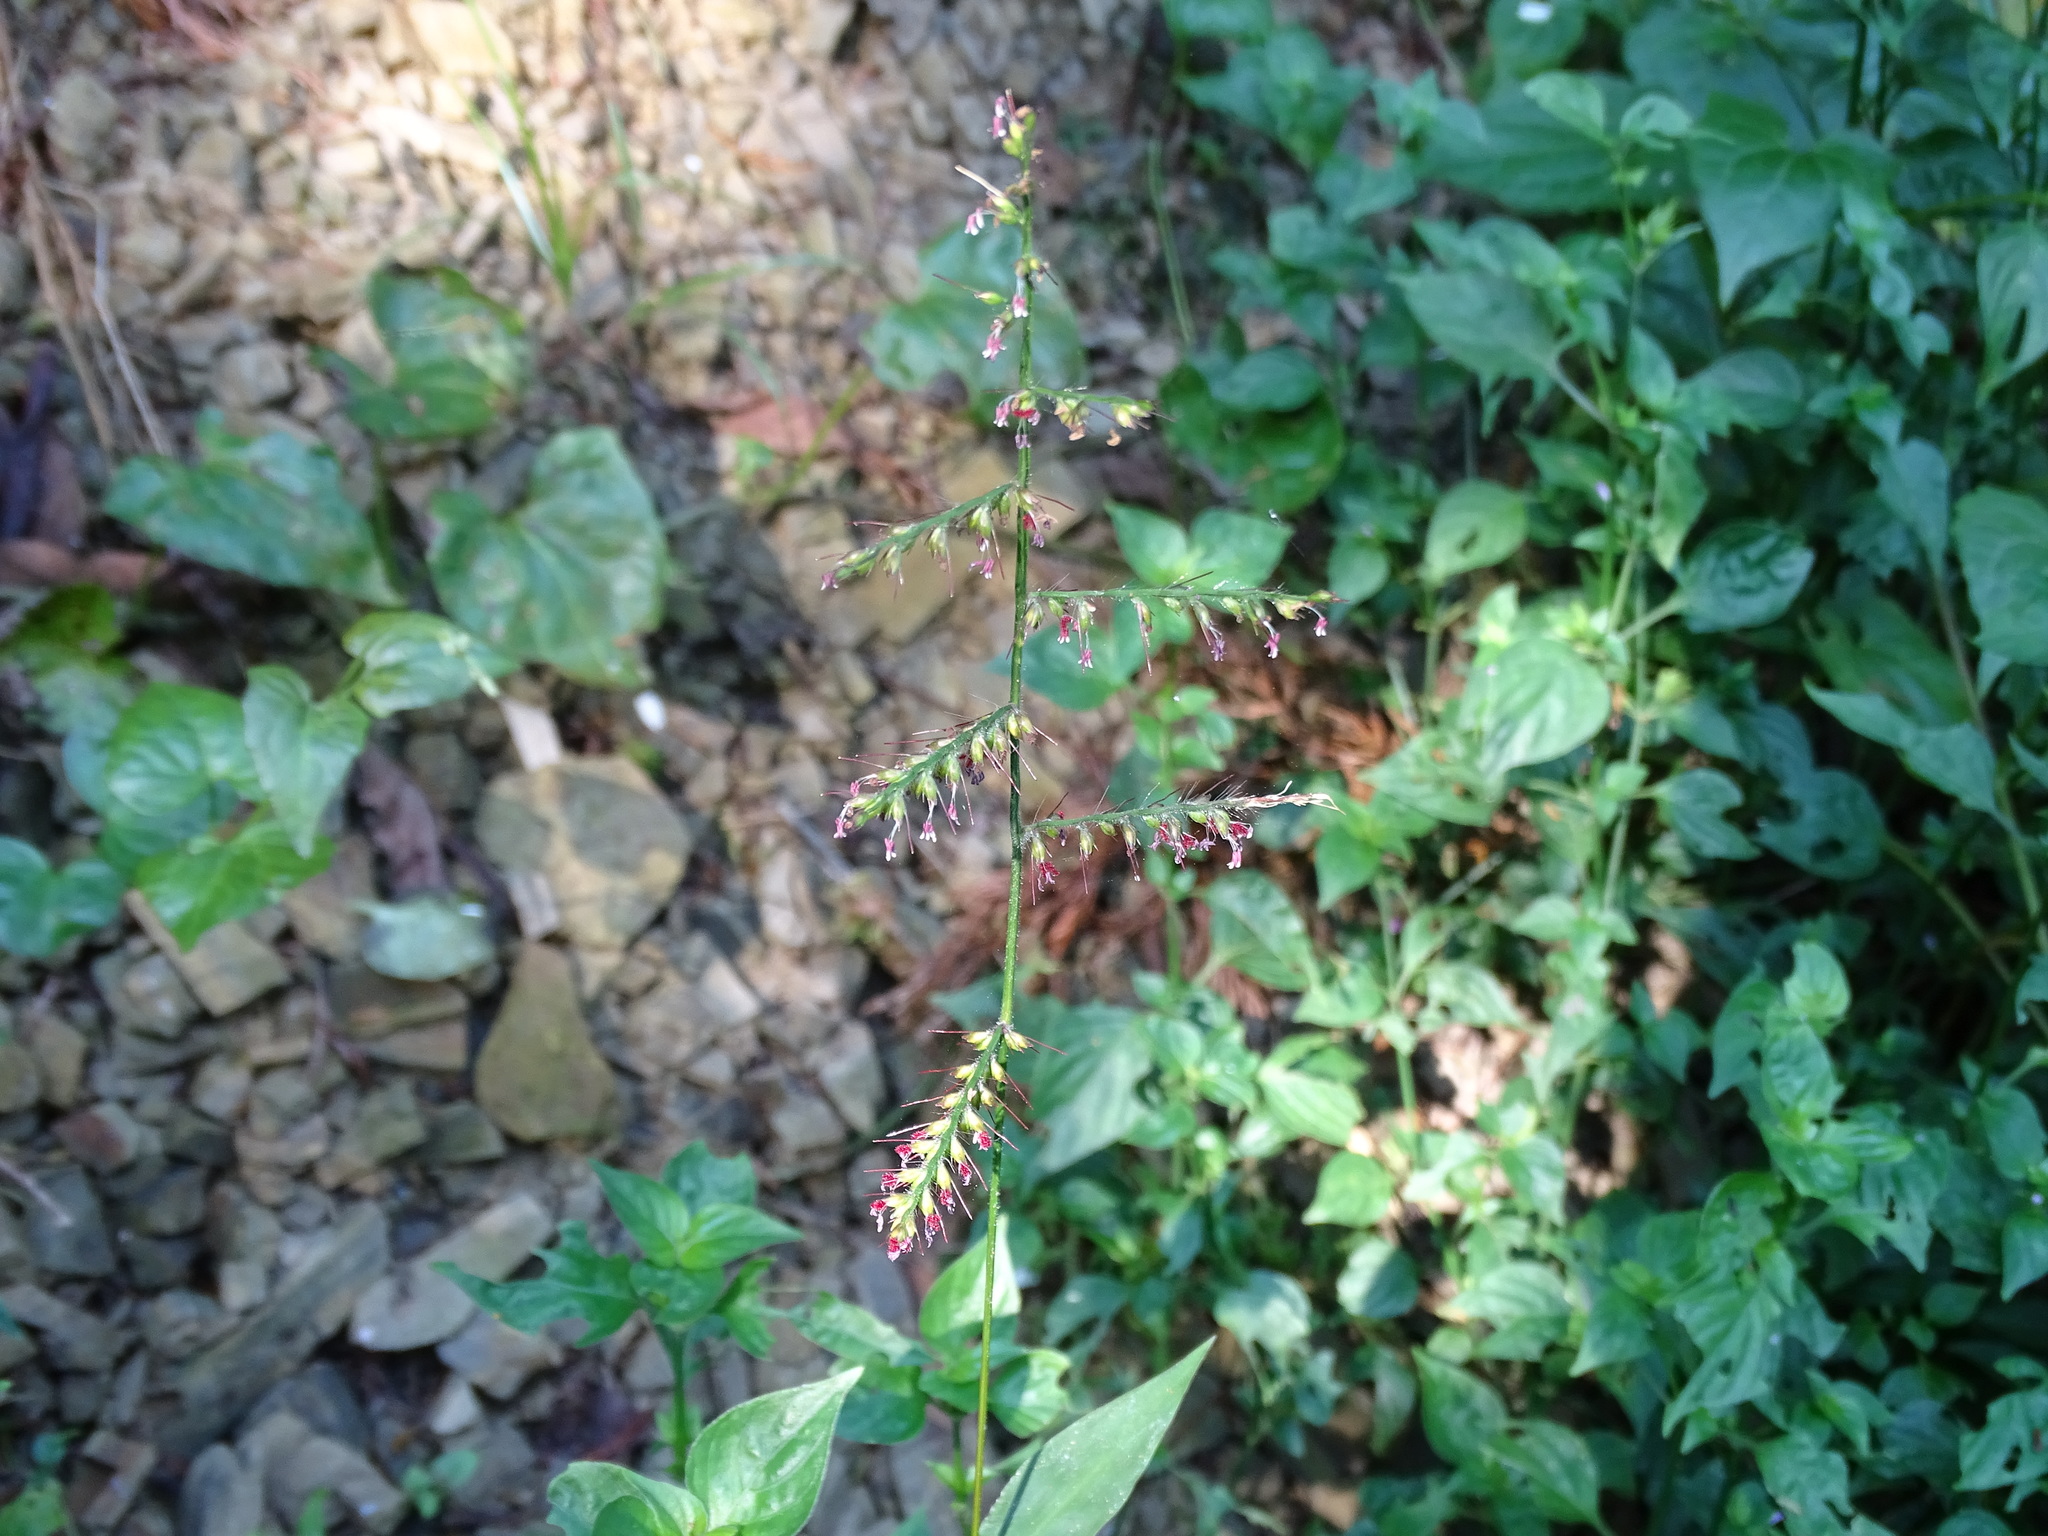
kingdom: Plantae
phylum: Tracheophyta
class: Liliopsida
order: Poales
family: Poaceae
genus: Oplismenus
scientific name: Oplismenus compositus
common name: Running mountain grass
